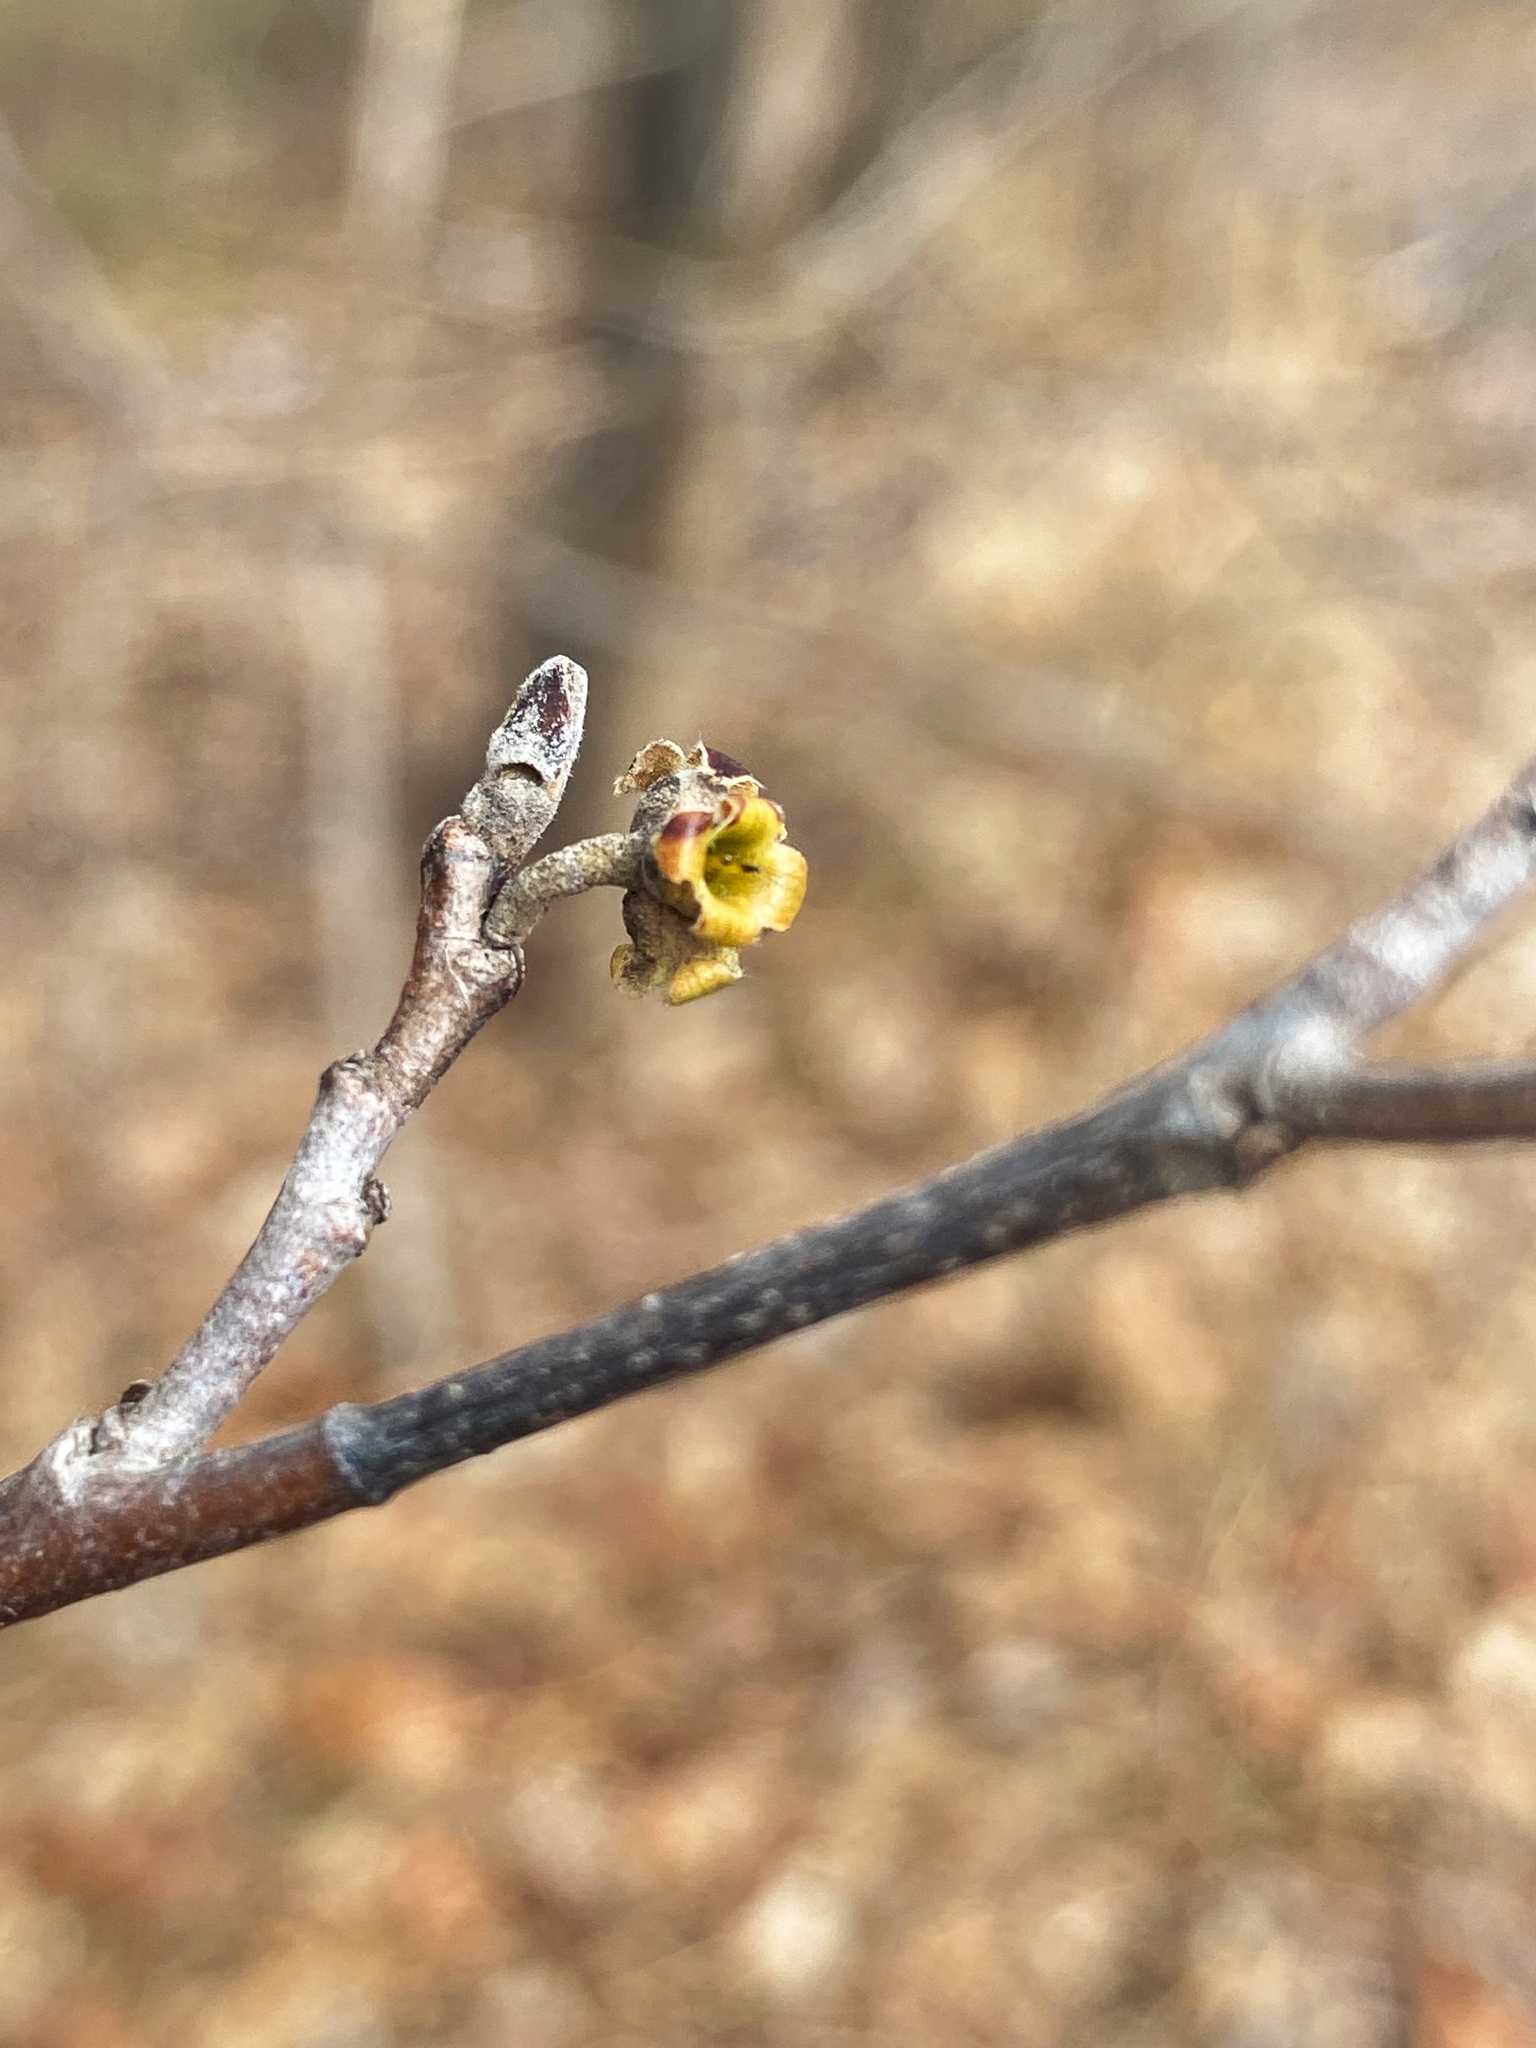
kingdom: Plantae
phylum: Tracheophyta
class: Magnoliopsida
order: Saxifragales
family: Hamamelidaceae
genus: Hamamelis
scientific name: Hamamelis virginiana
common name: Witch-hazel
